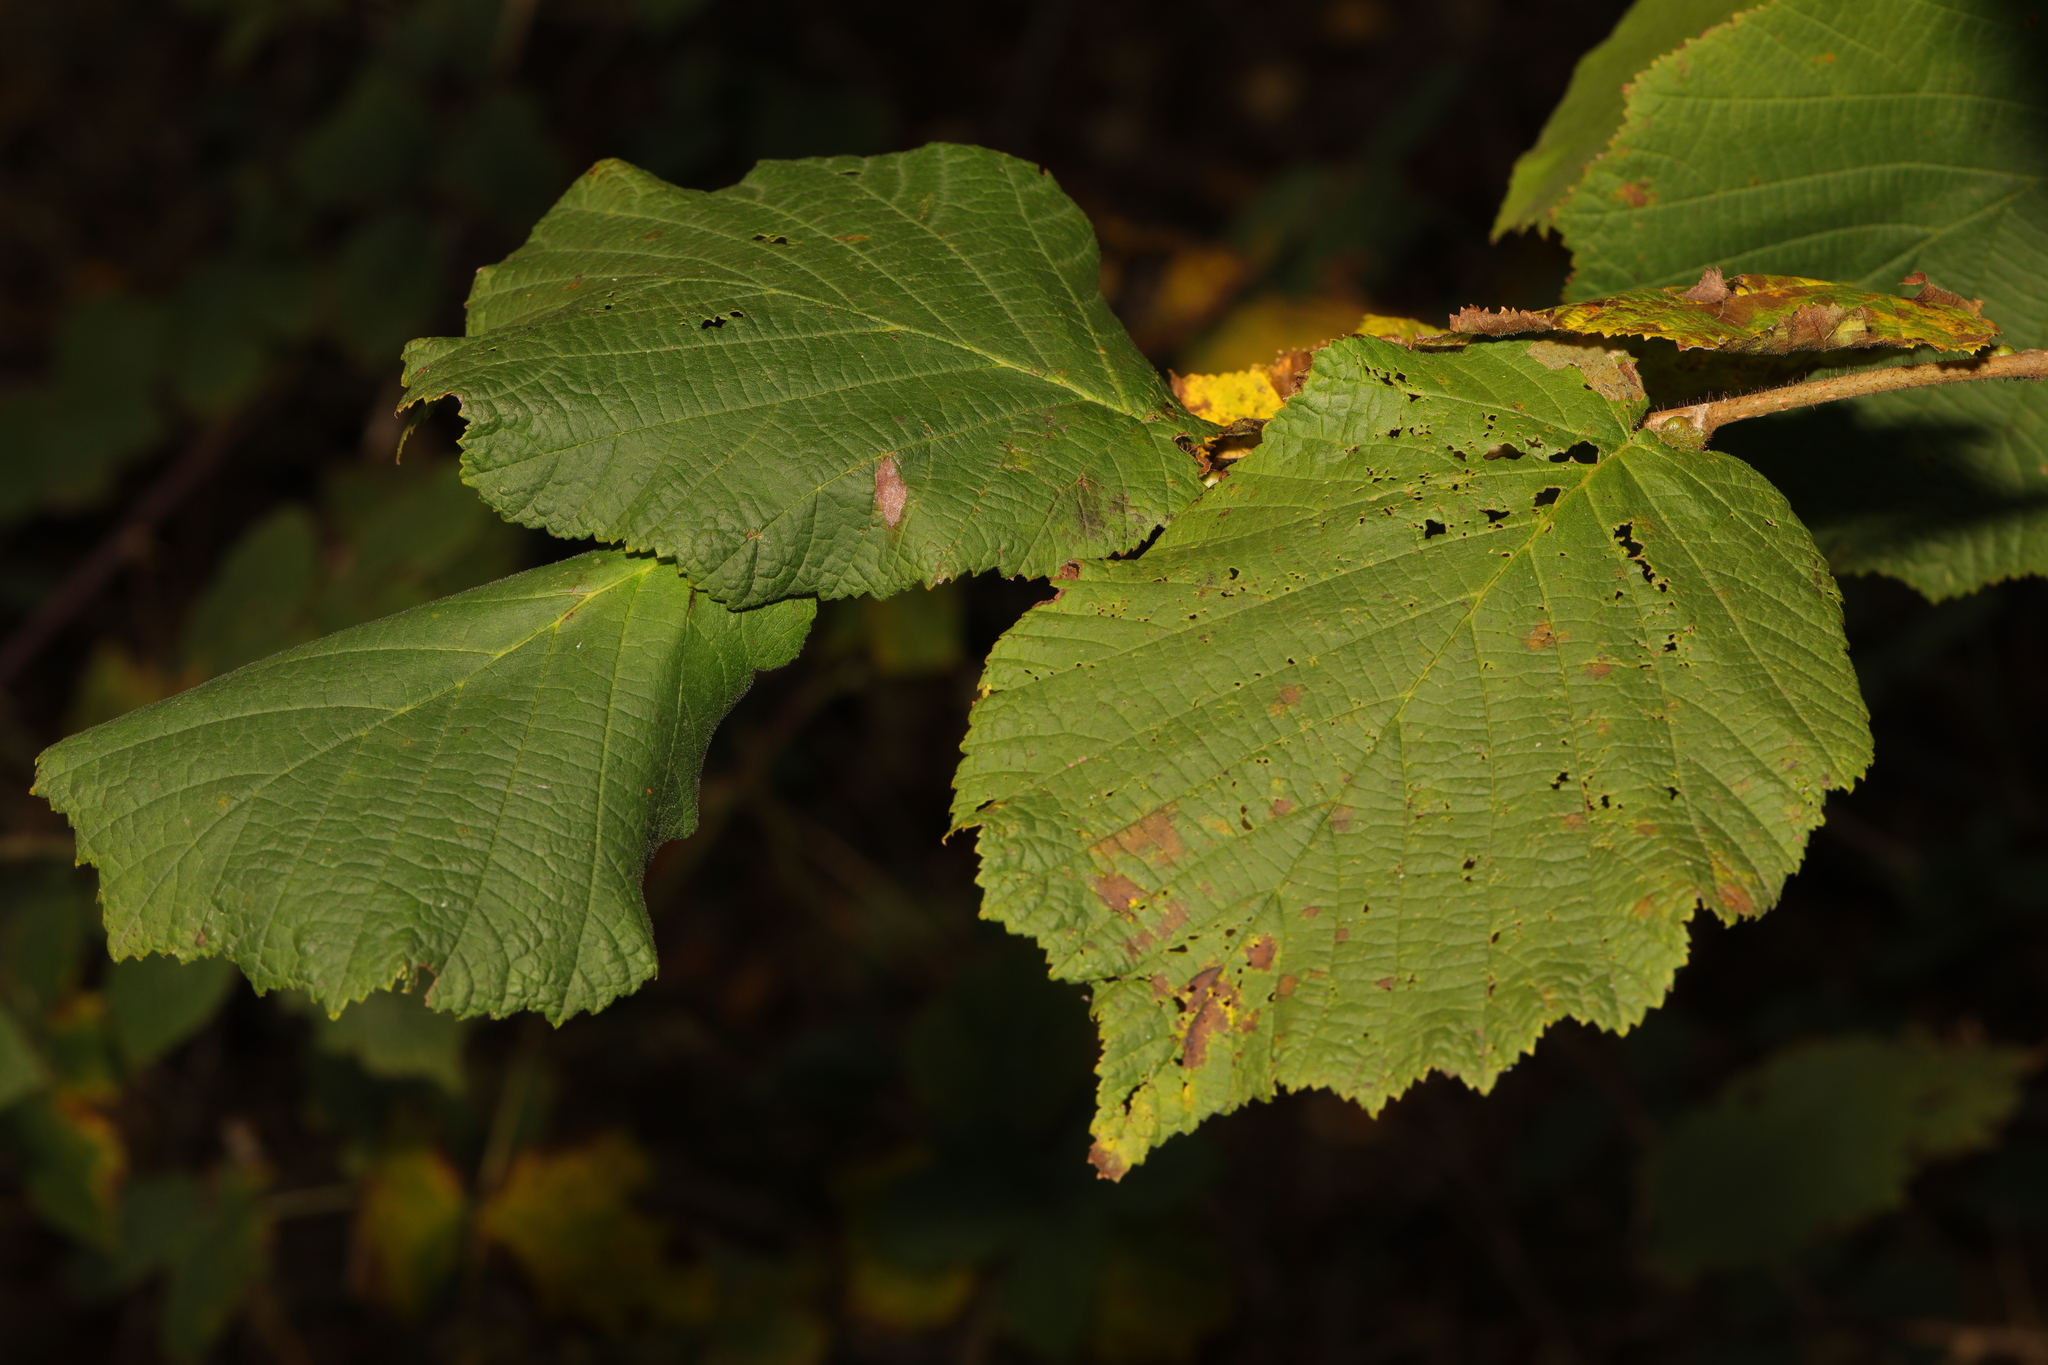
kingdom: Plantae
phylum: Tracheophyta
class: Magnoliopsida
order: Fagales
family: Betulaceae
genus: Corylus
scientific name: Corylus avellana
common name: European hazel
